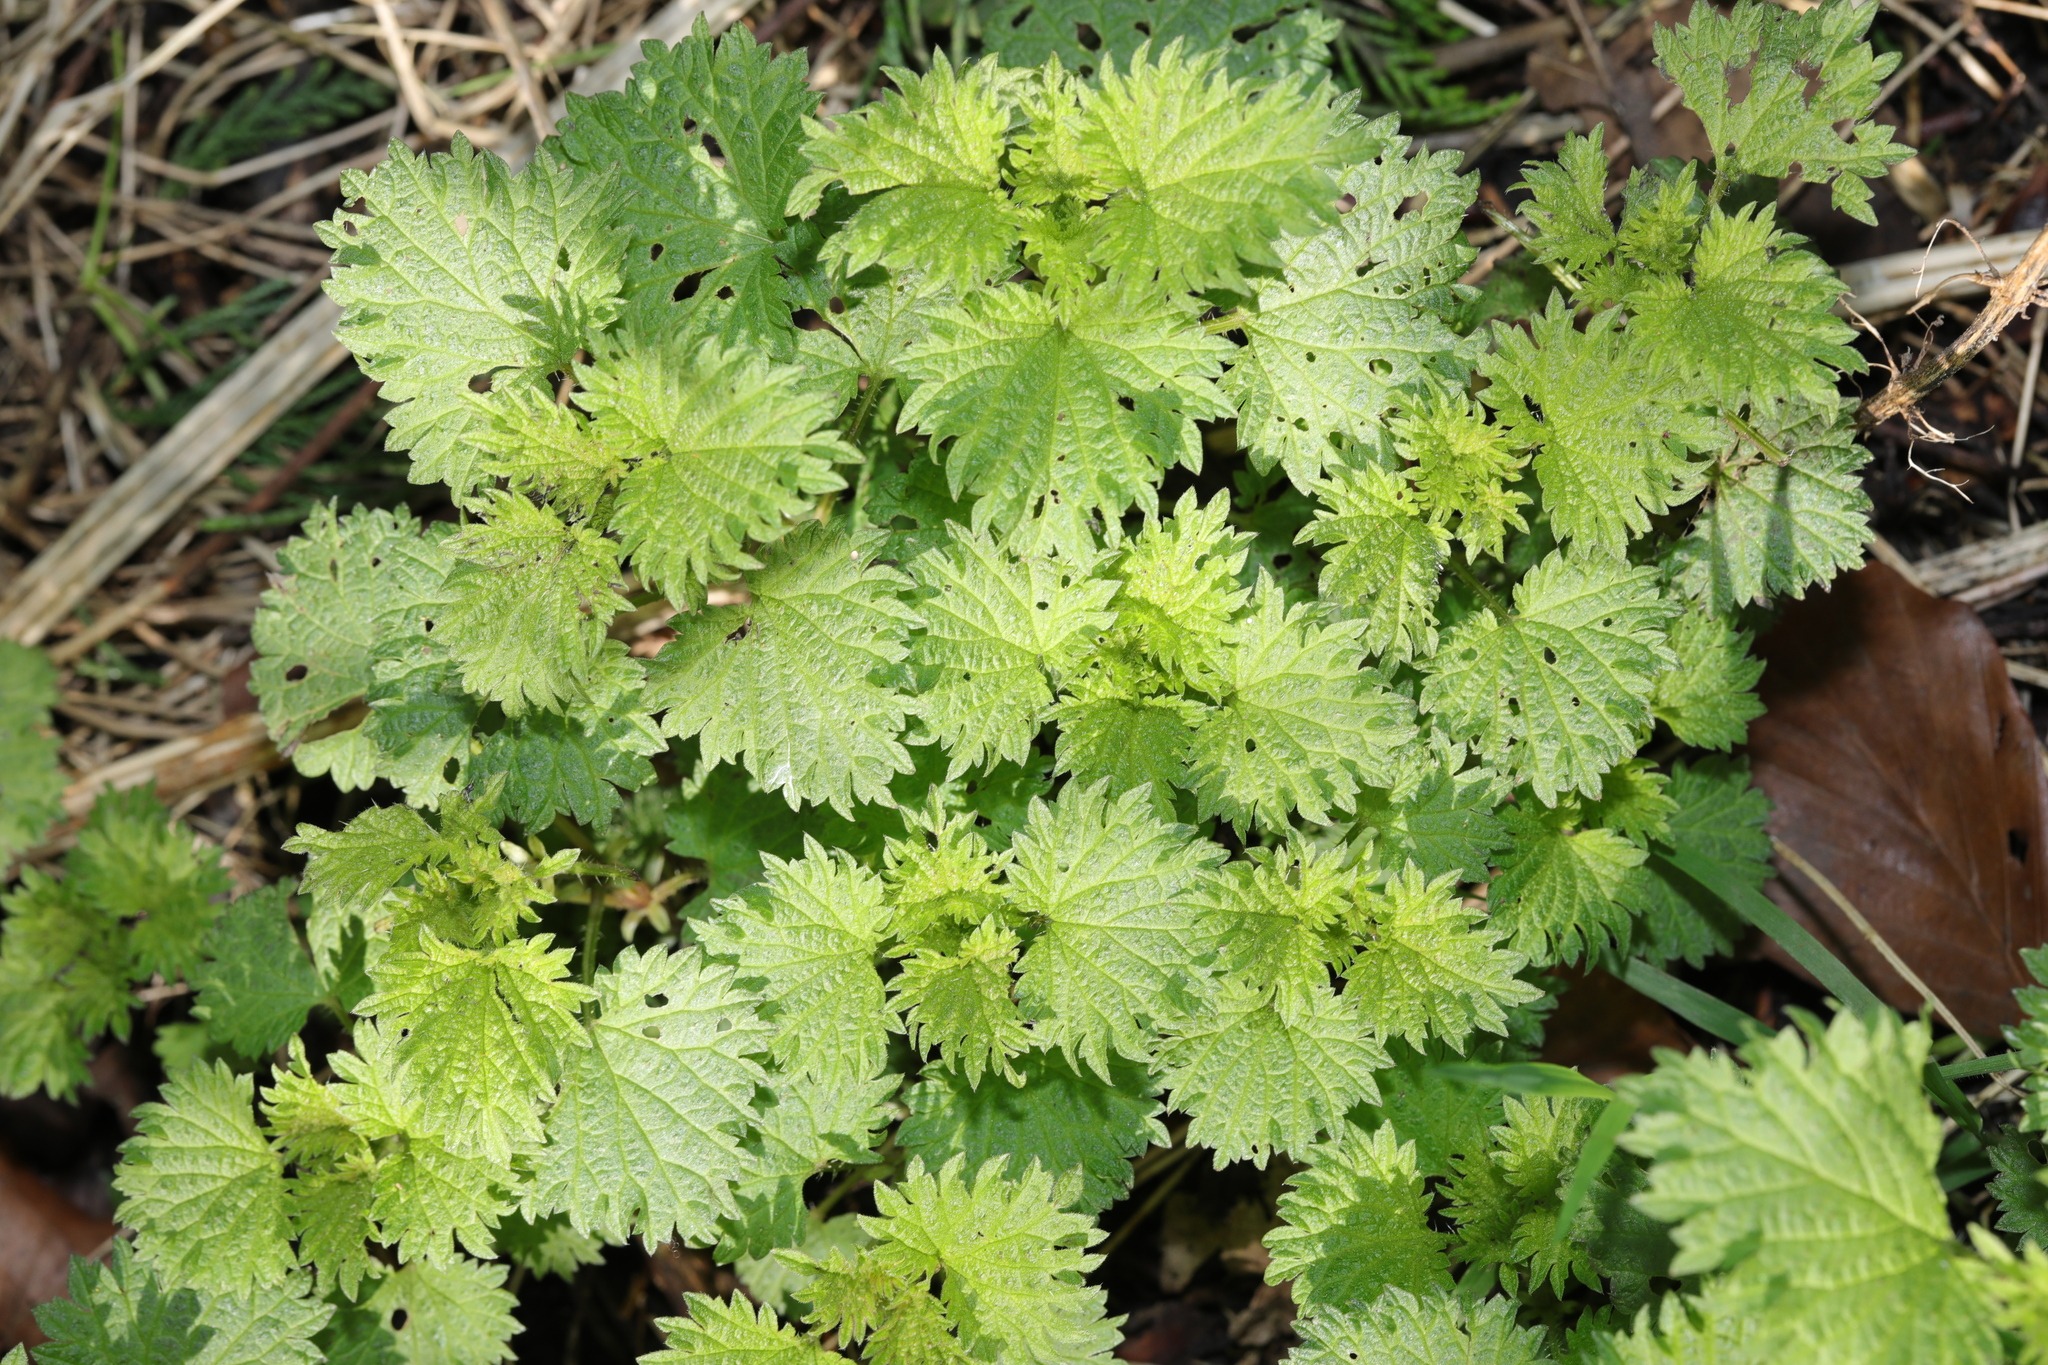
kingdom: Plantae
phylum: Tracheophyta
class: Magnoliopsida
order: Rosales
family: Urticaceae
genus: Urtica
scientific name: Urtica dioica
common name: Common nettle
